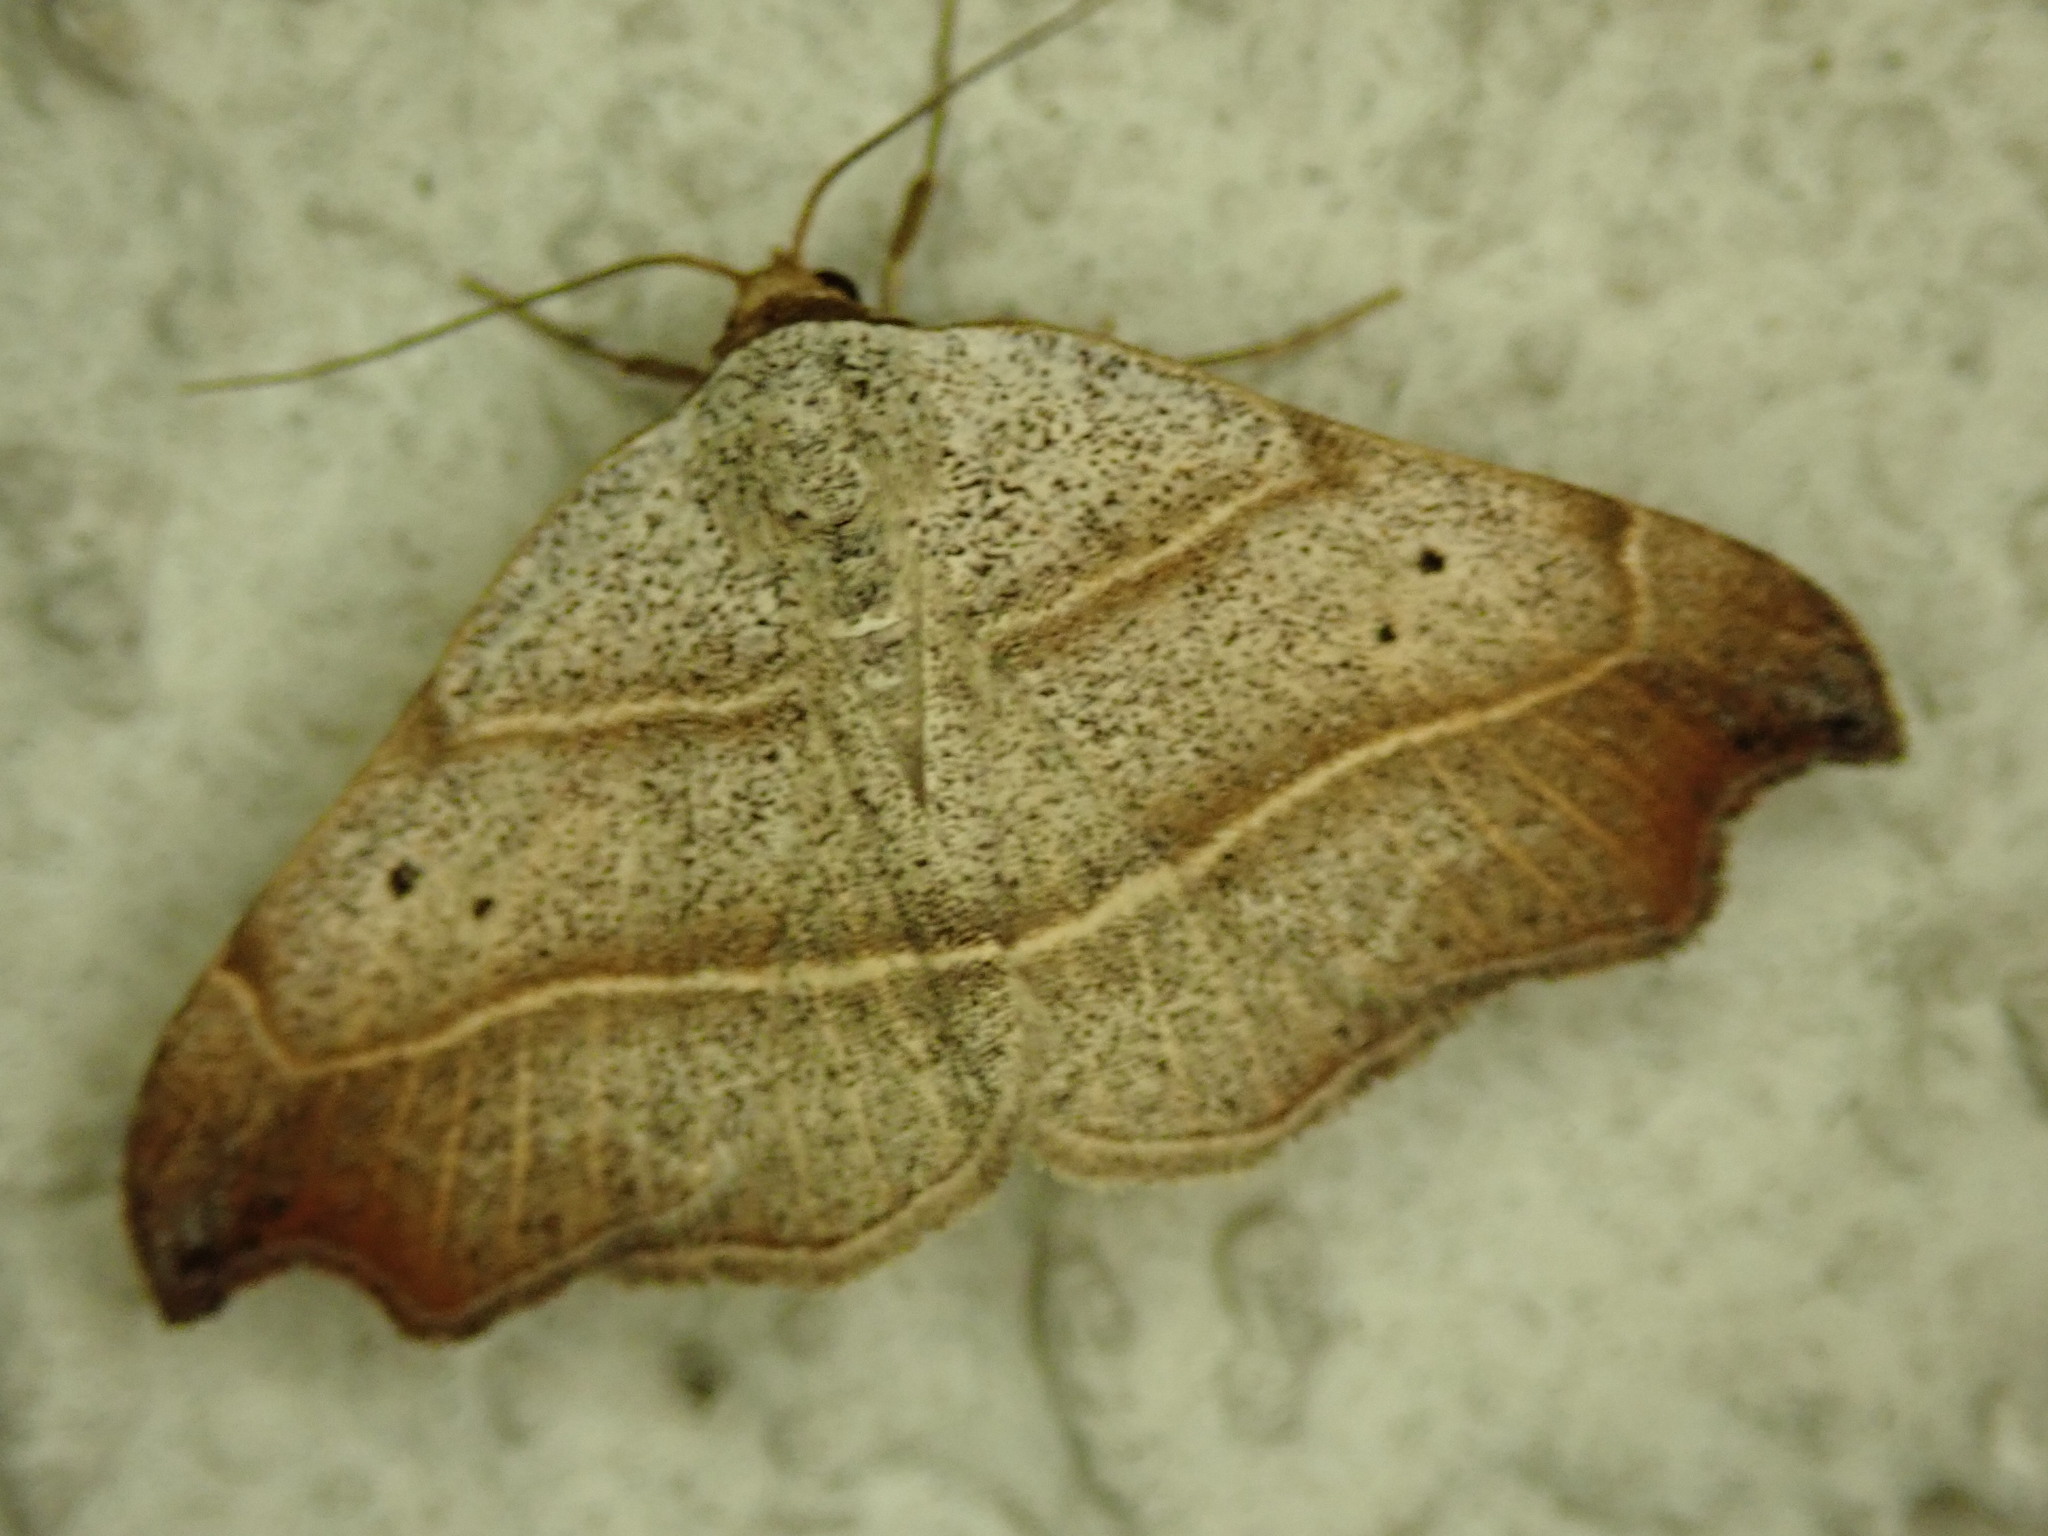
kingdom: Animalia
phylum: Arthropoda
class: Insecta
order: Lepidoptera
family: Erebidae
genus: Laspeyria
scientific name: Laspeyria flexula
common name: Beautiful hook-tip
